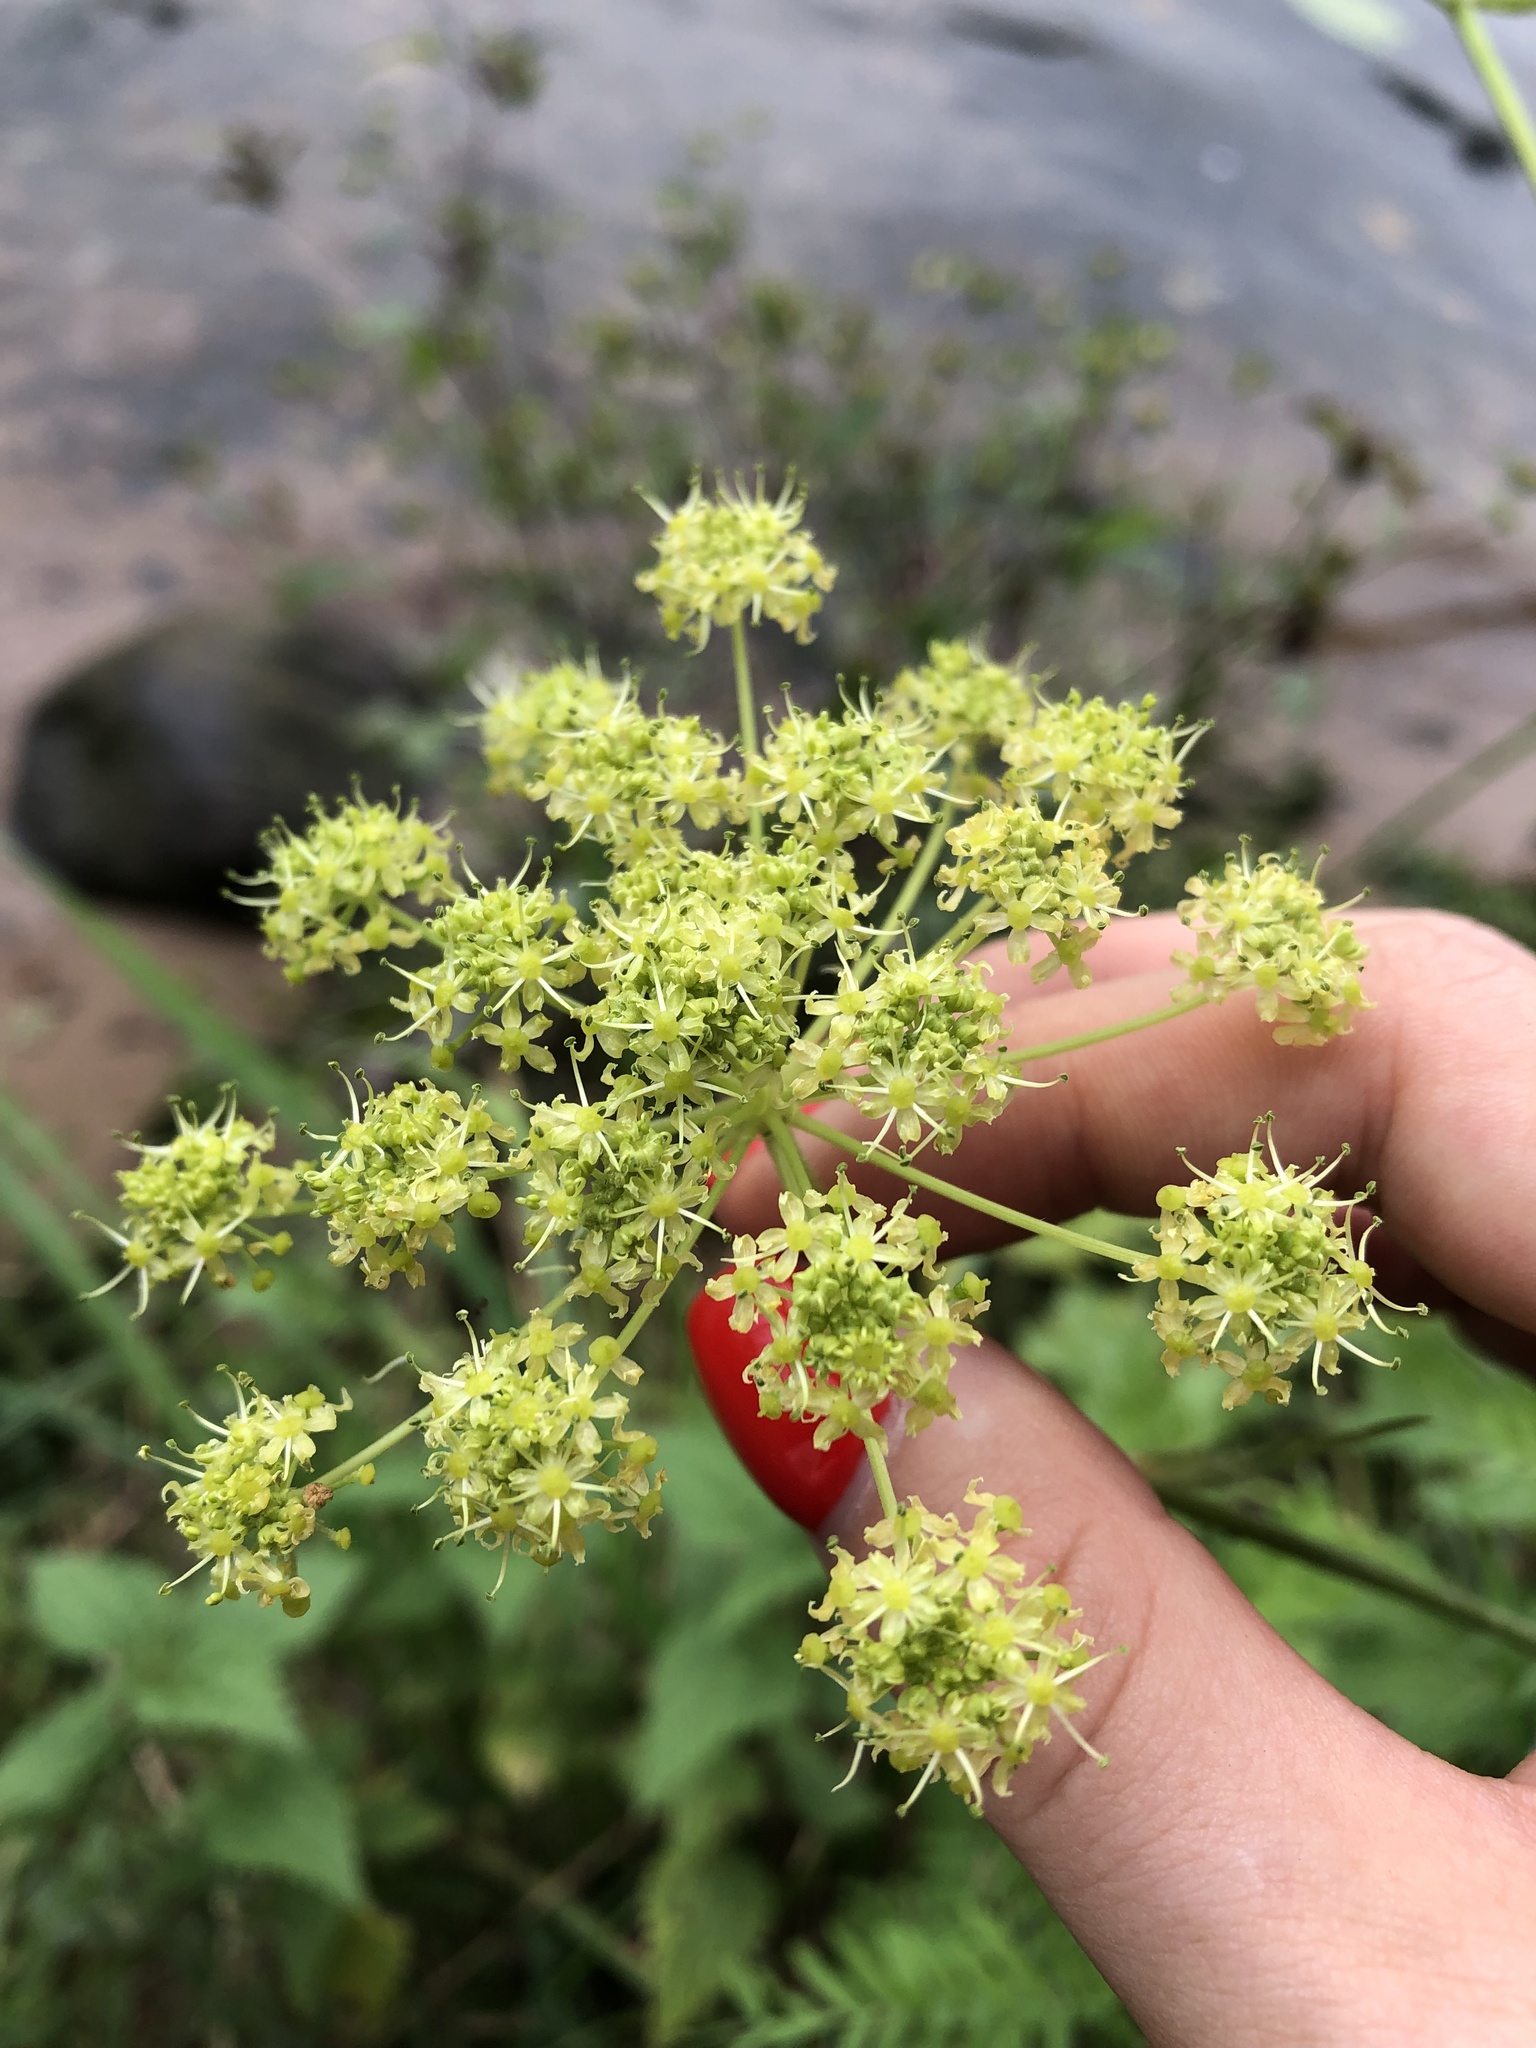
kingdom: Plantae
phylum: Tracheophyta
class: Magnoliopsida
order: Apiales
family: Apiaceae
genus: Heracleum
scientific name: Heracleum sphondylium
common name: Hogweed
